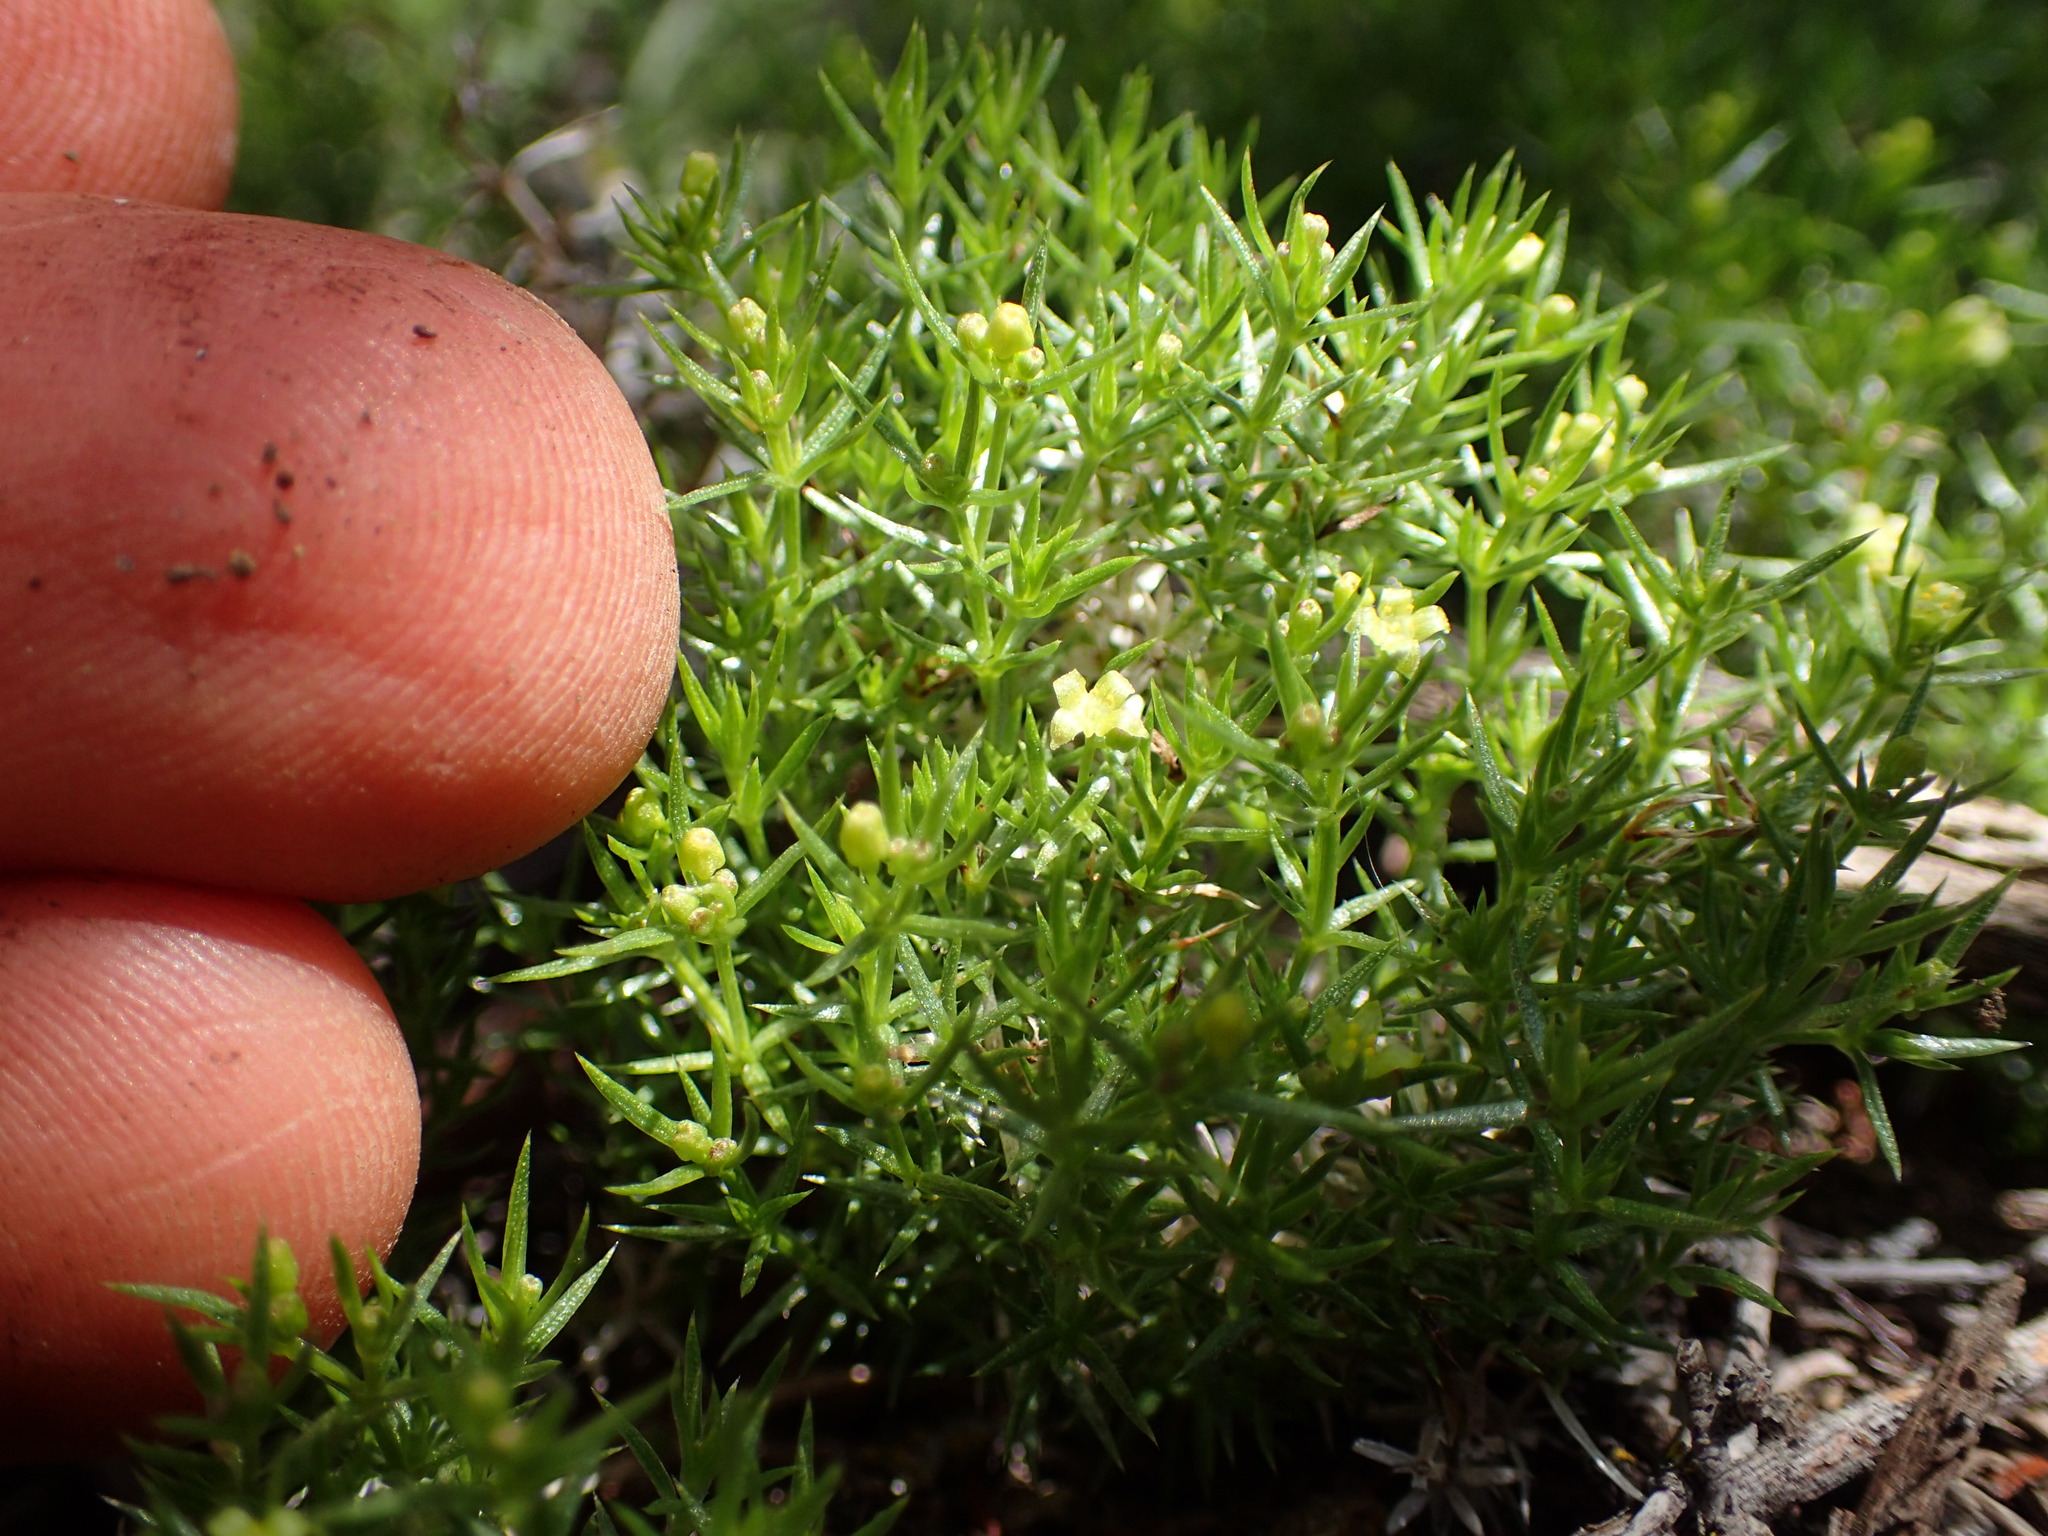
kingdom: Plantae
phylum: Tracheophyta
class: Magnoliopsida
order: Gentianales
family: Rubiaceae
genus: Galium
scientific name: Galium andrewsii
